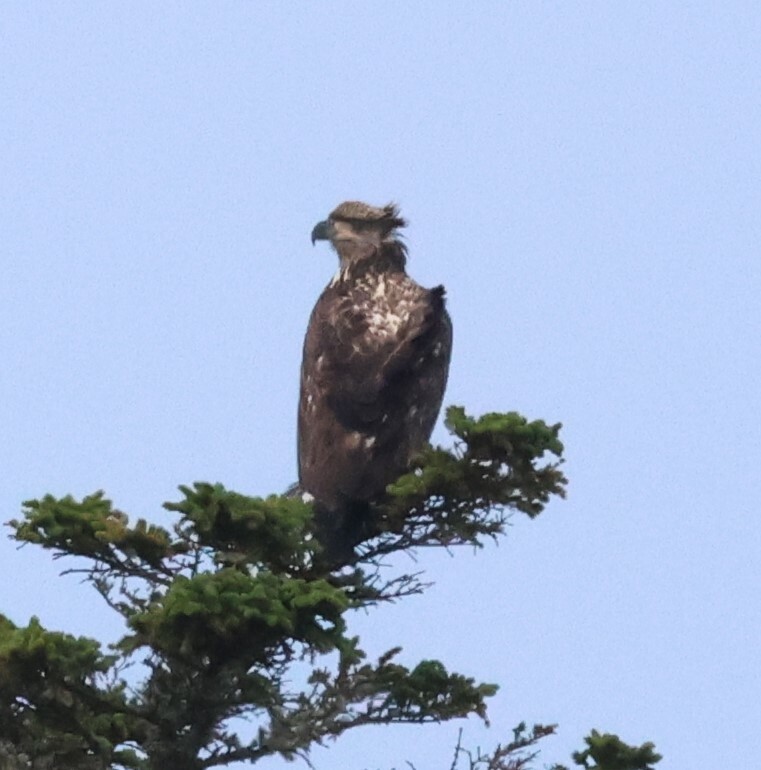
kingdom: Animalia
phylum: Chordata
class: Aves
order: Accipitriformes
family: Accipitridae
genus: Haliaeetus
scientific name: Haliaeetus leucocephalus
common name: Bald eagle
